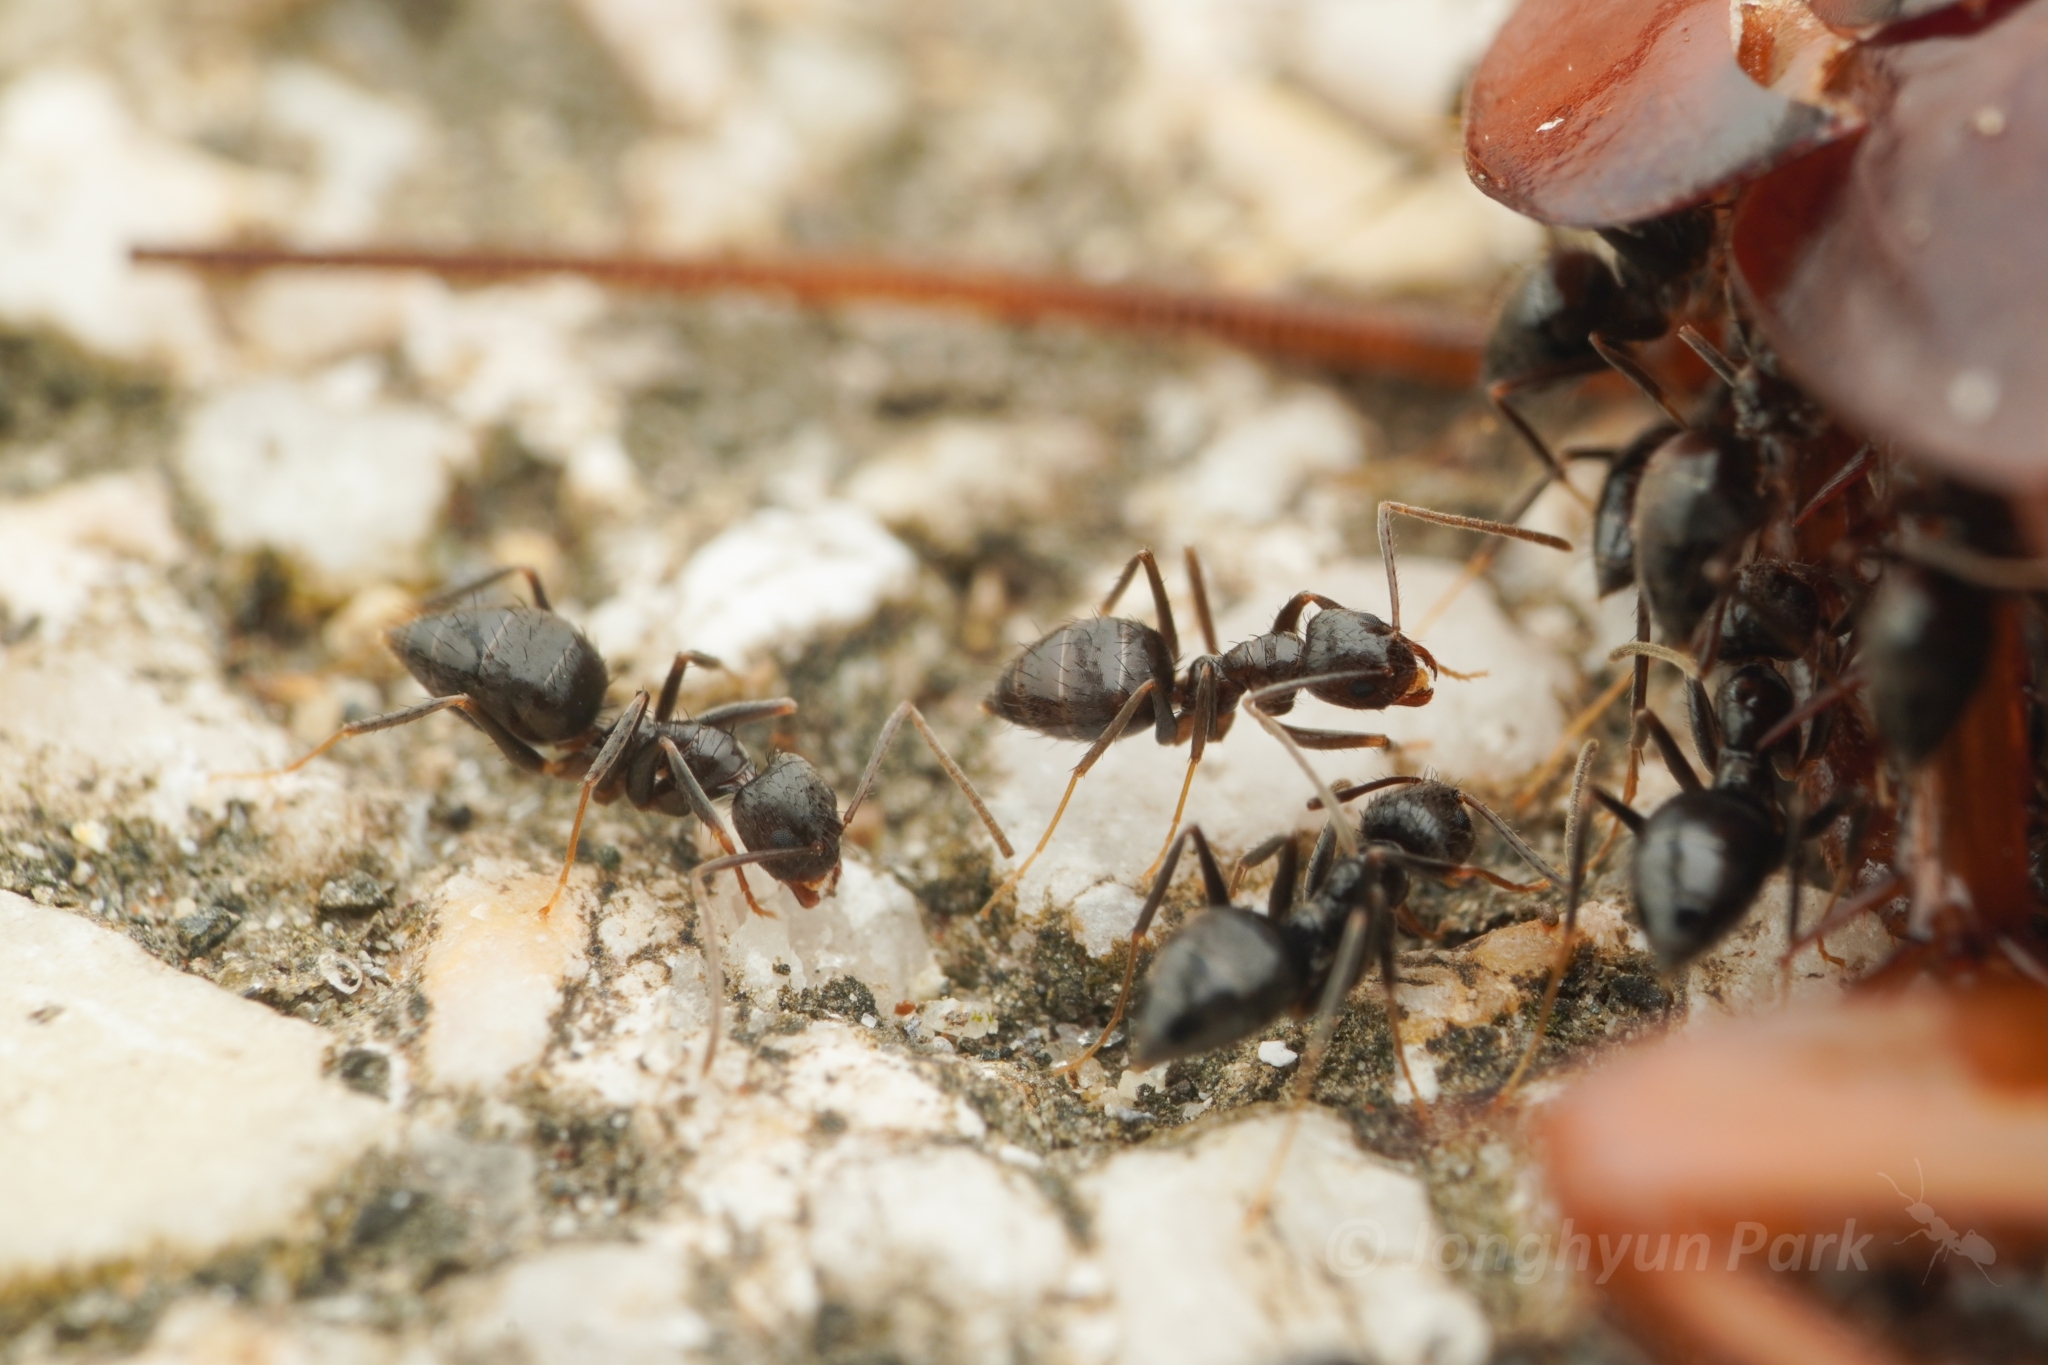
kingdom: Animalia
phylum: Arthropoda
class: Insecta
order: Hymenoptera
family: Formicidae
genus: Nylanderia
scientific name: Nylanderia amia
